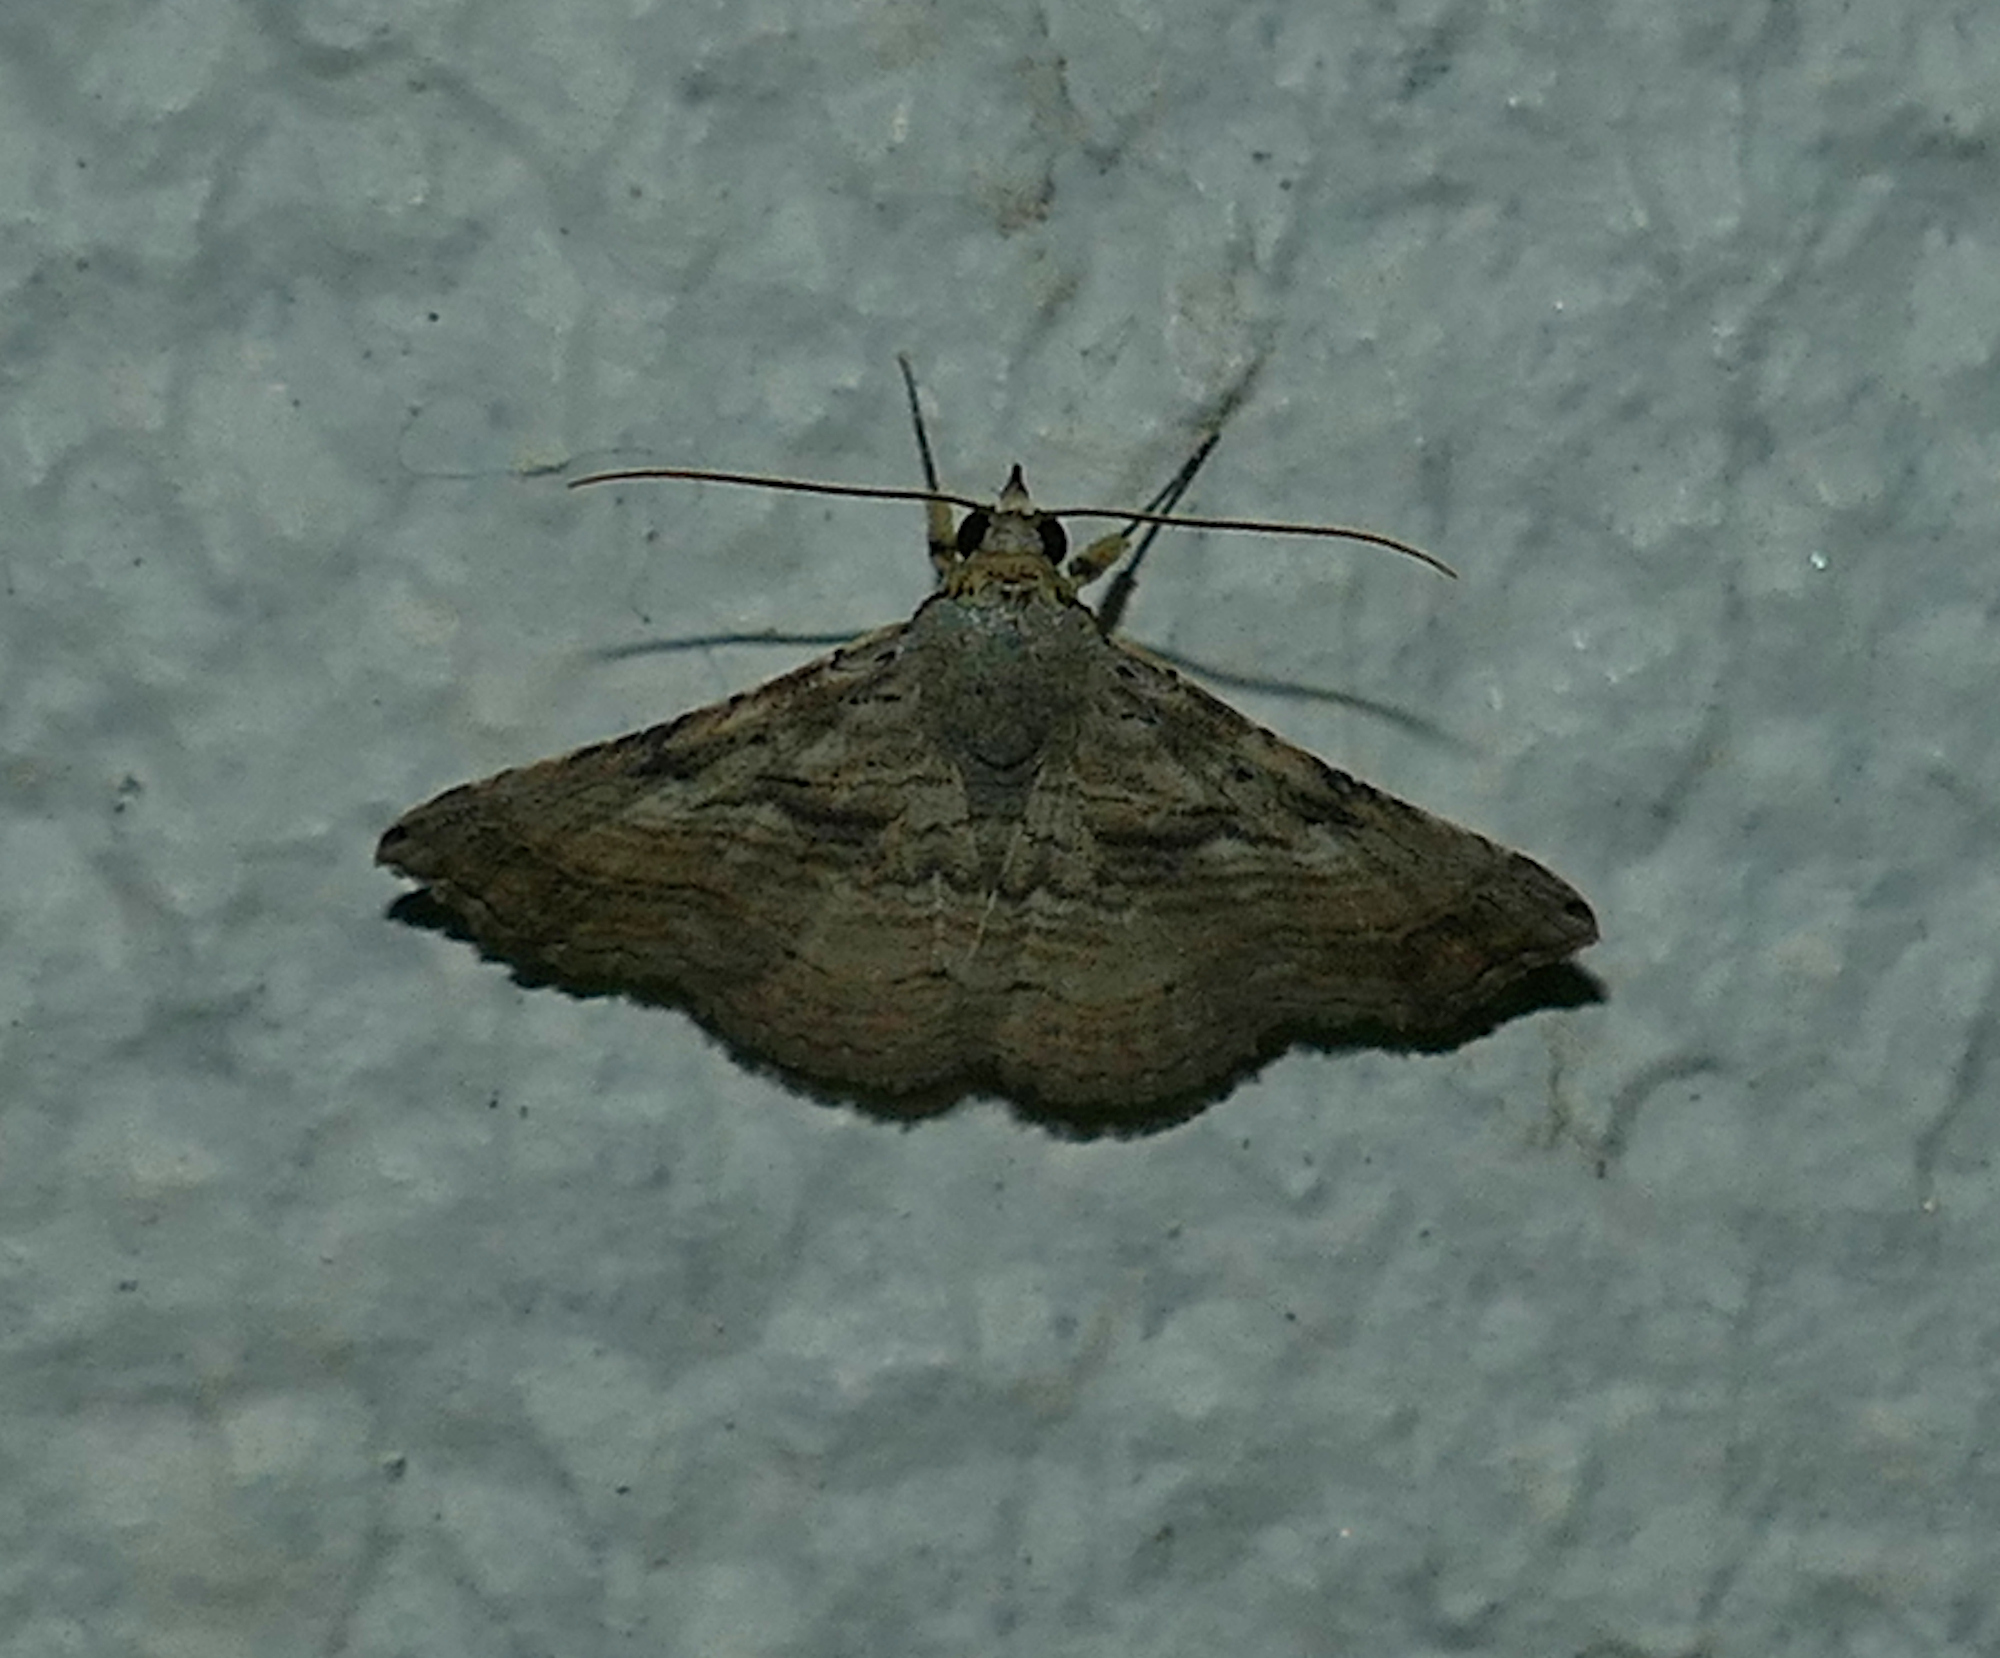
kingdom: Animalia
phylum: Arthropoda
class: Insecta
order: Lepidoptera
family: Erebidae
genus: Tyrissa
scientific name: Tyrissa multilinea
